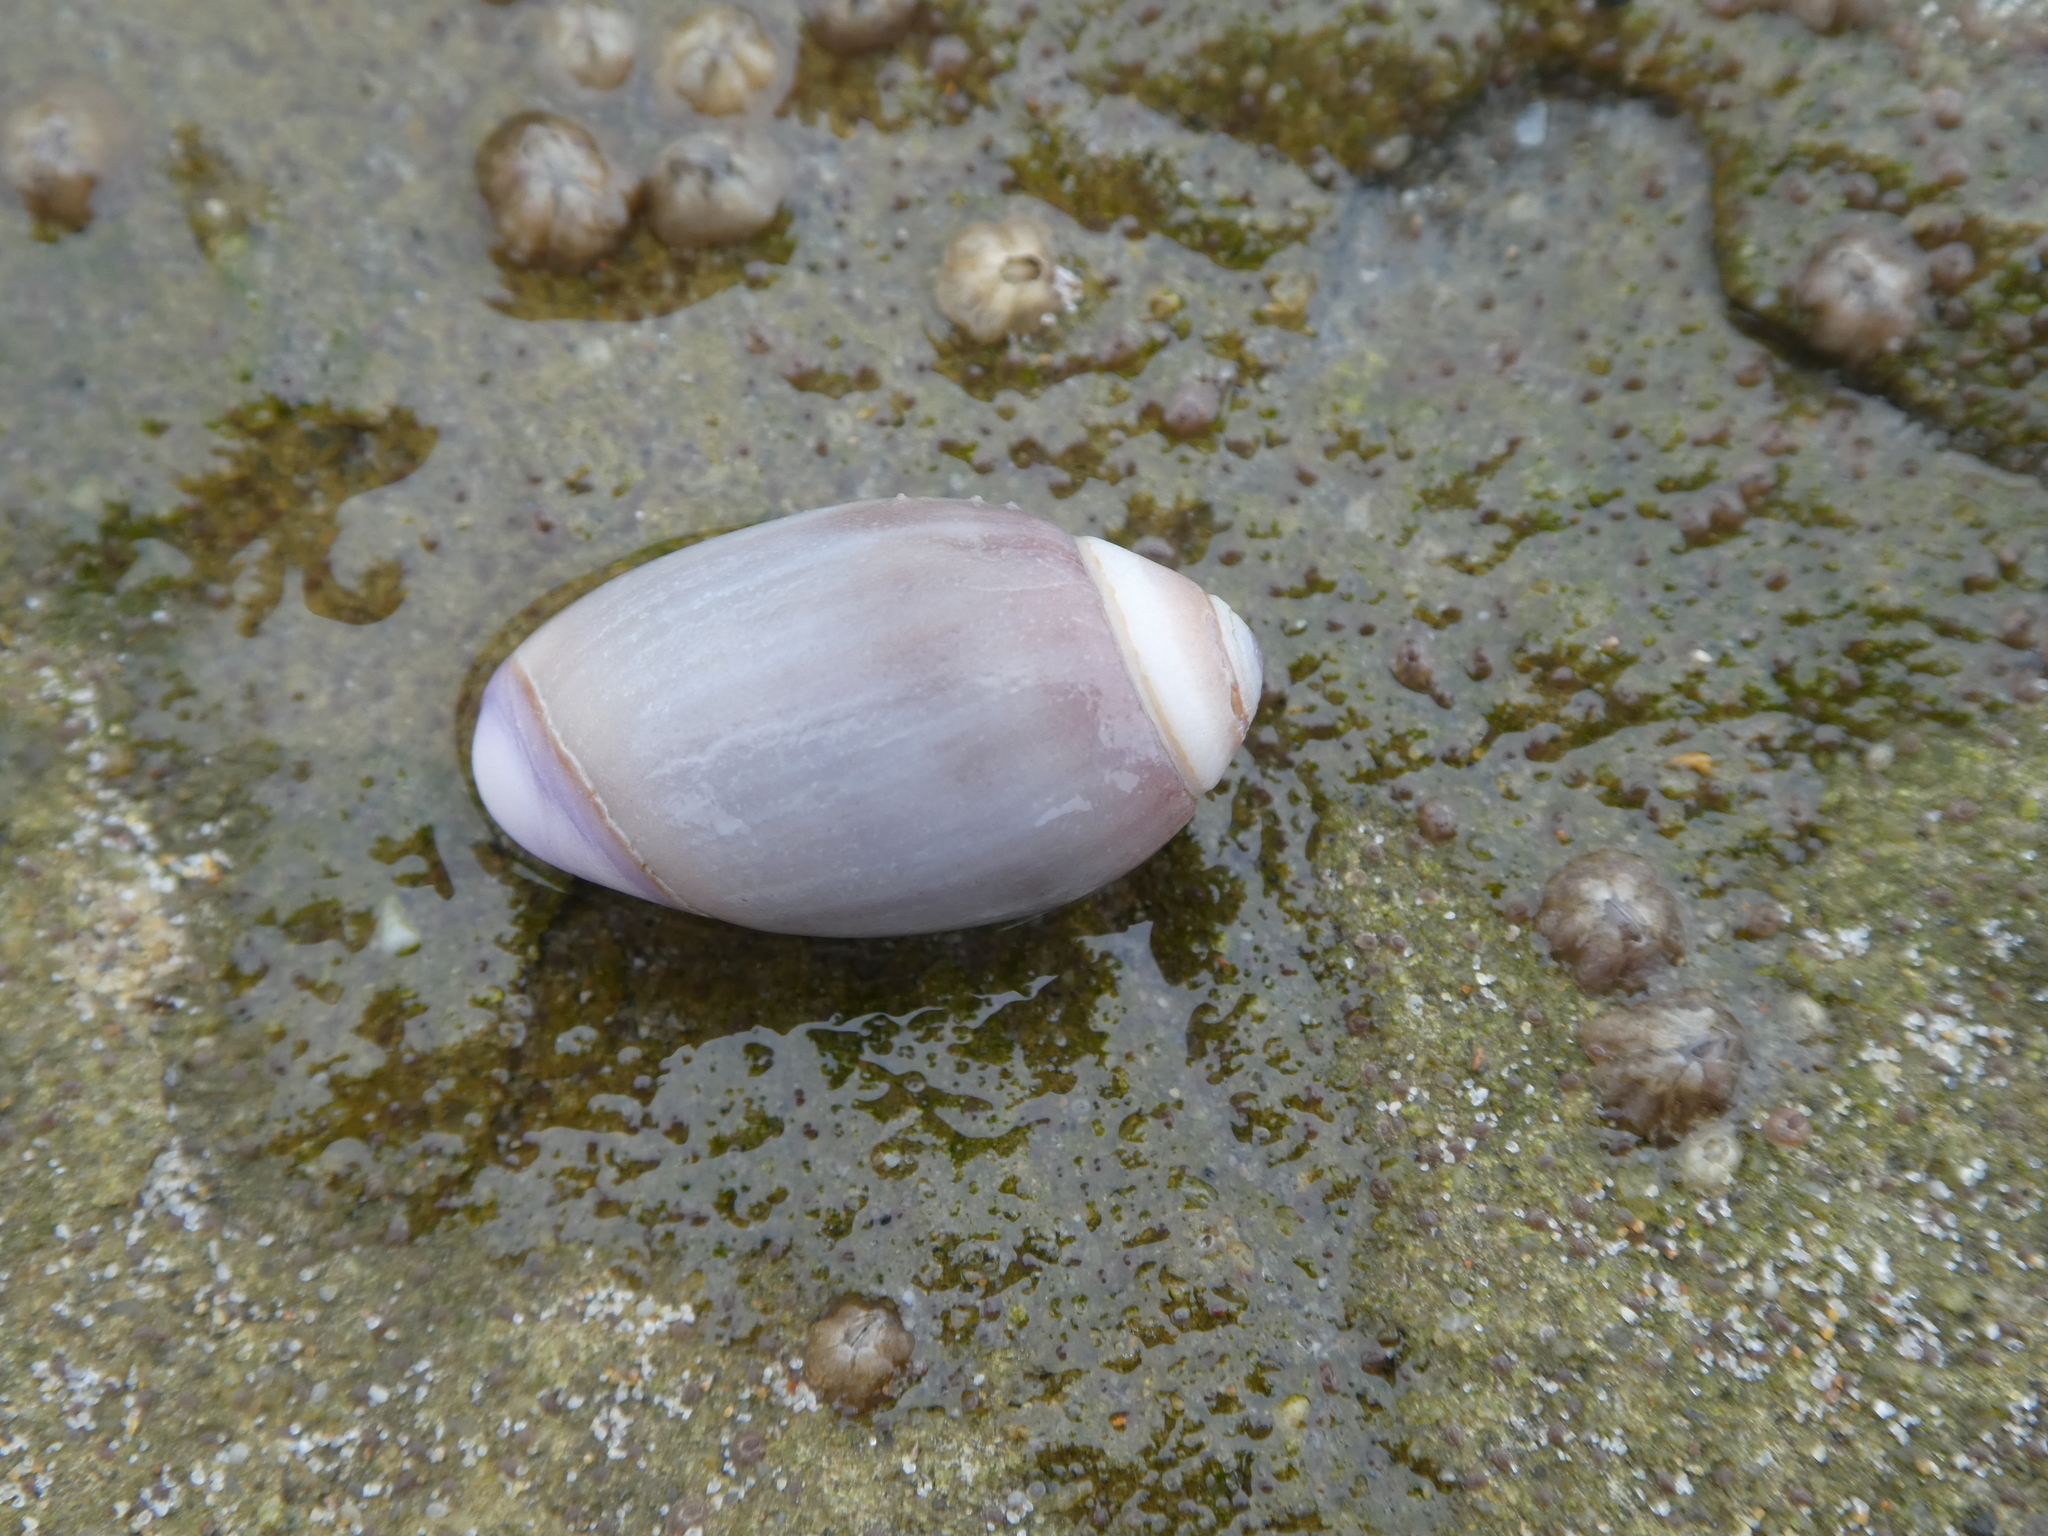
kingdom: Animalia
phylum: Mollusca
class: Gastropoda
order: Neogastropoda
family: Olividae
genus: Callianax
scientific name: Callianax biplicata
